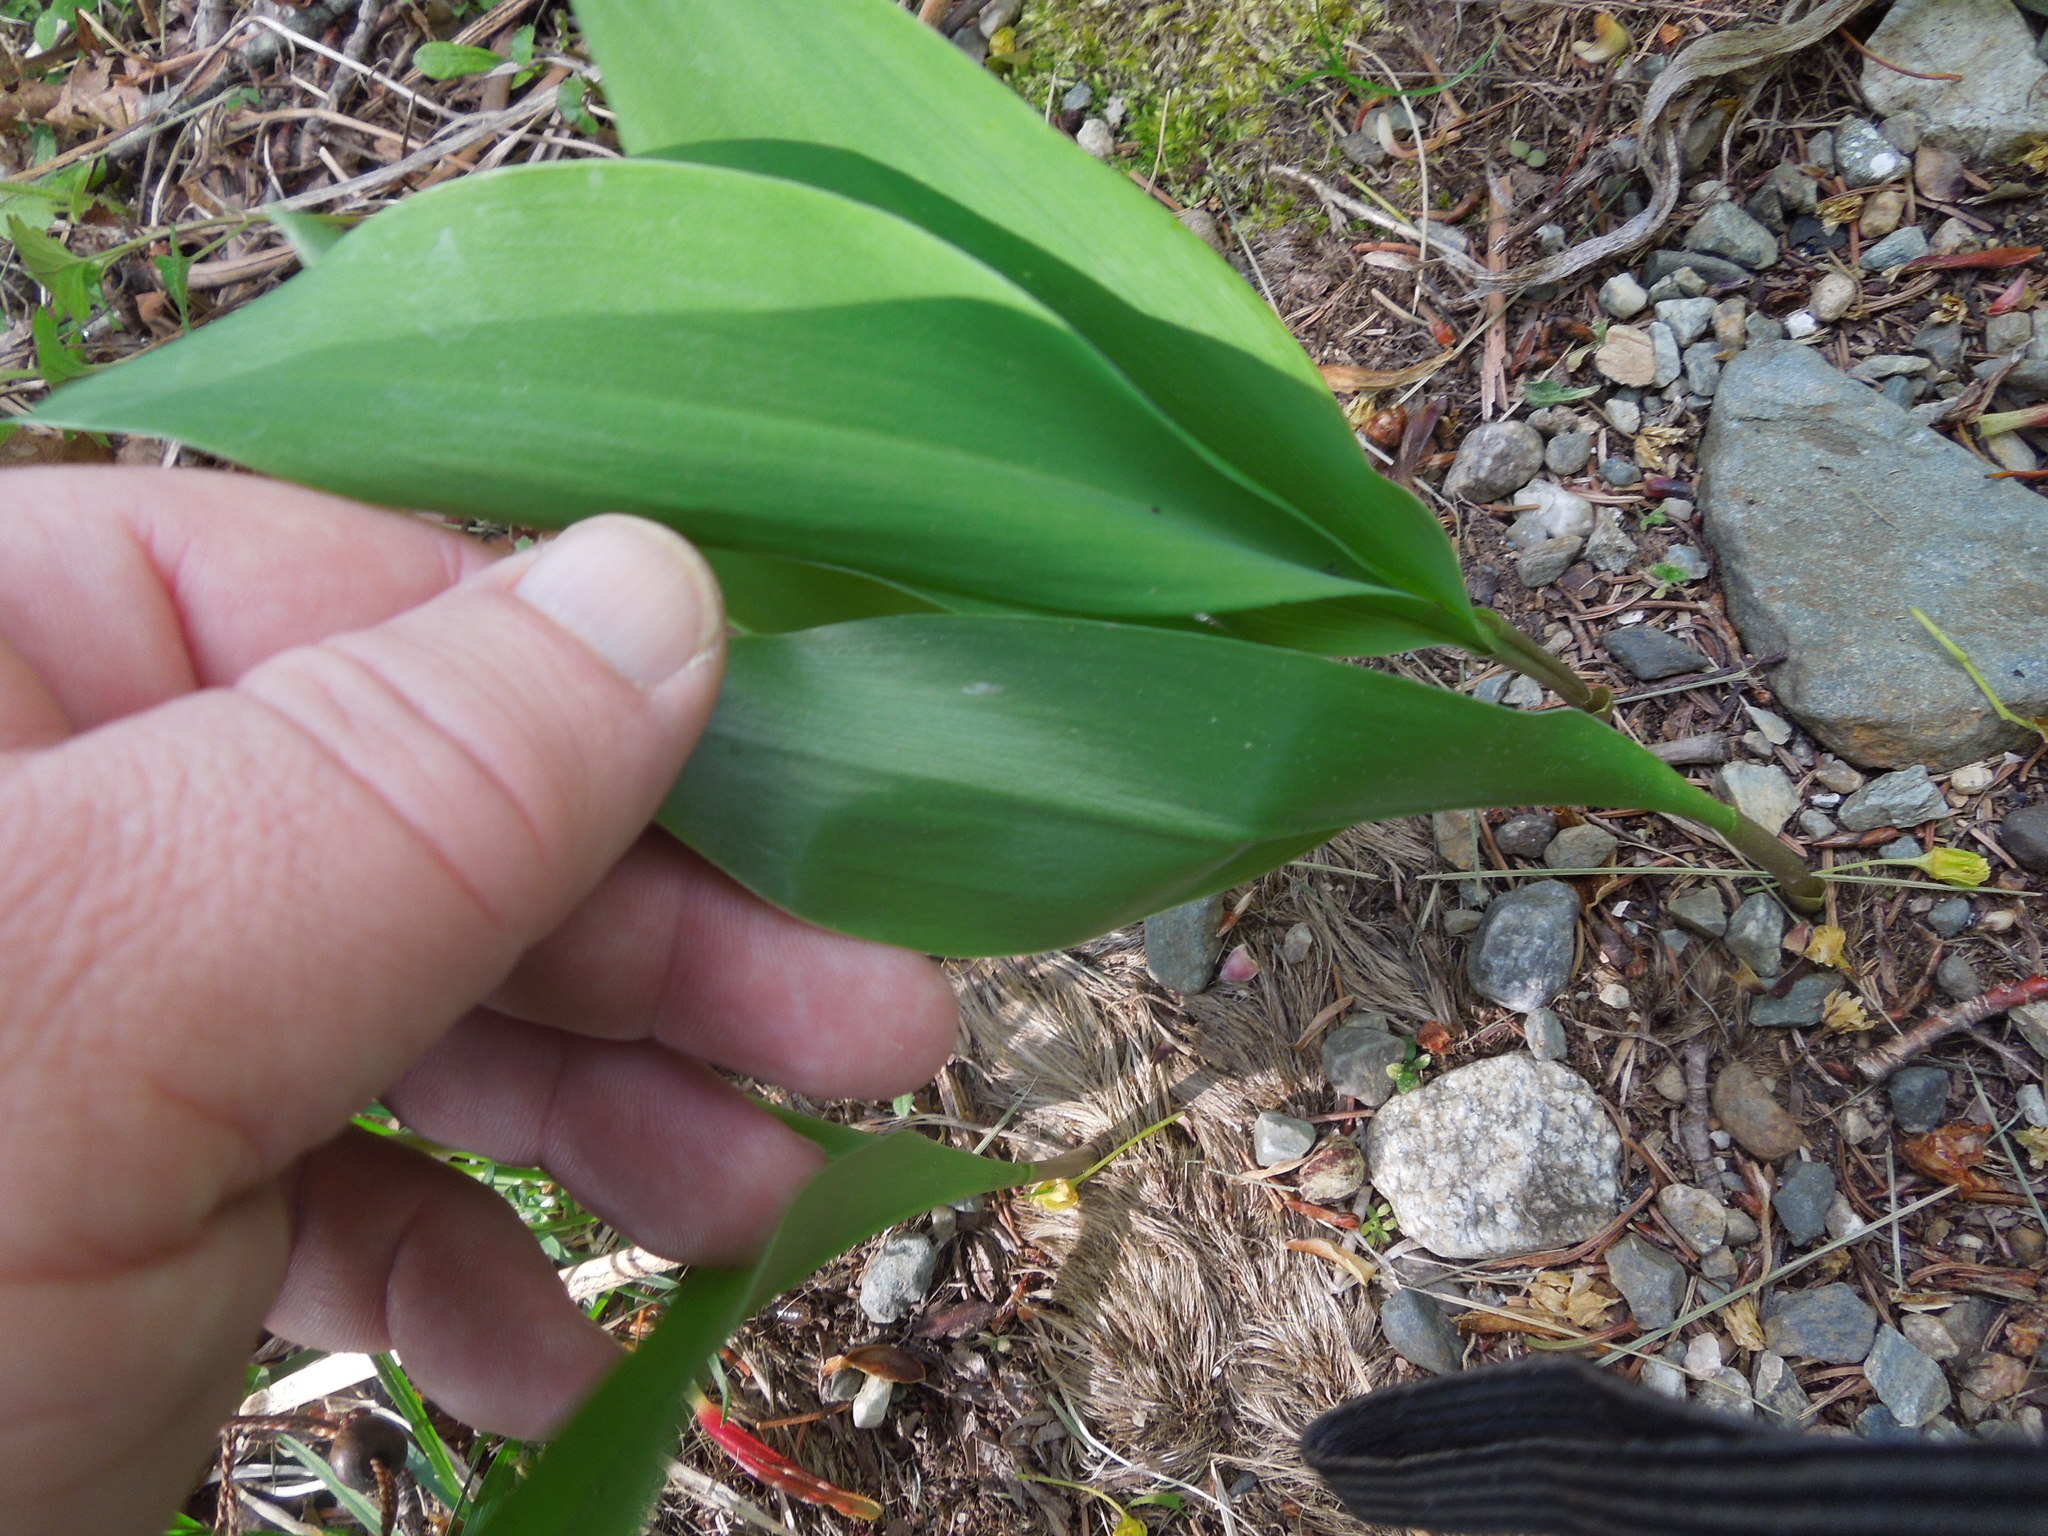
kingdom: Plantae
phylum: Tracheophyta
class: Liliopsida
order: Asparagales
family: Asparagaceae
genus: Convallaria
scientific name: Convallaria majalis
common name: Lily-of-the-valley
